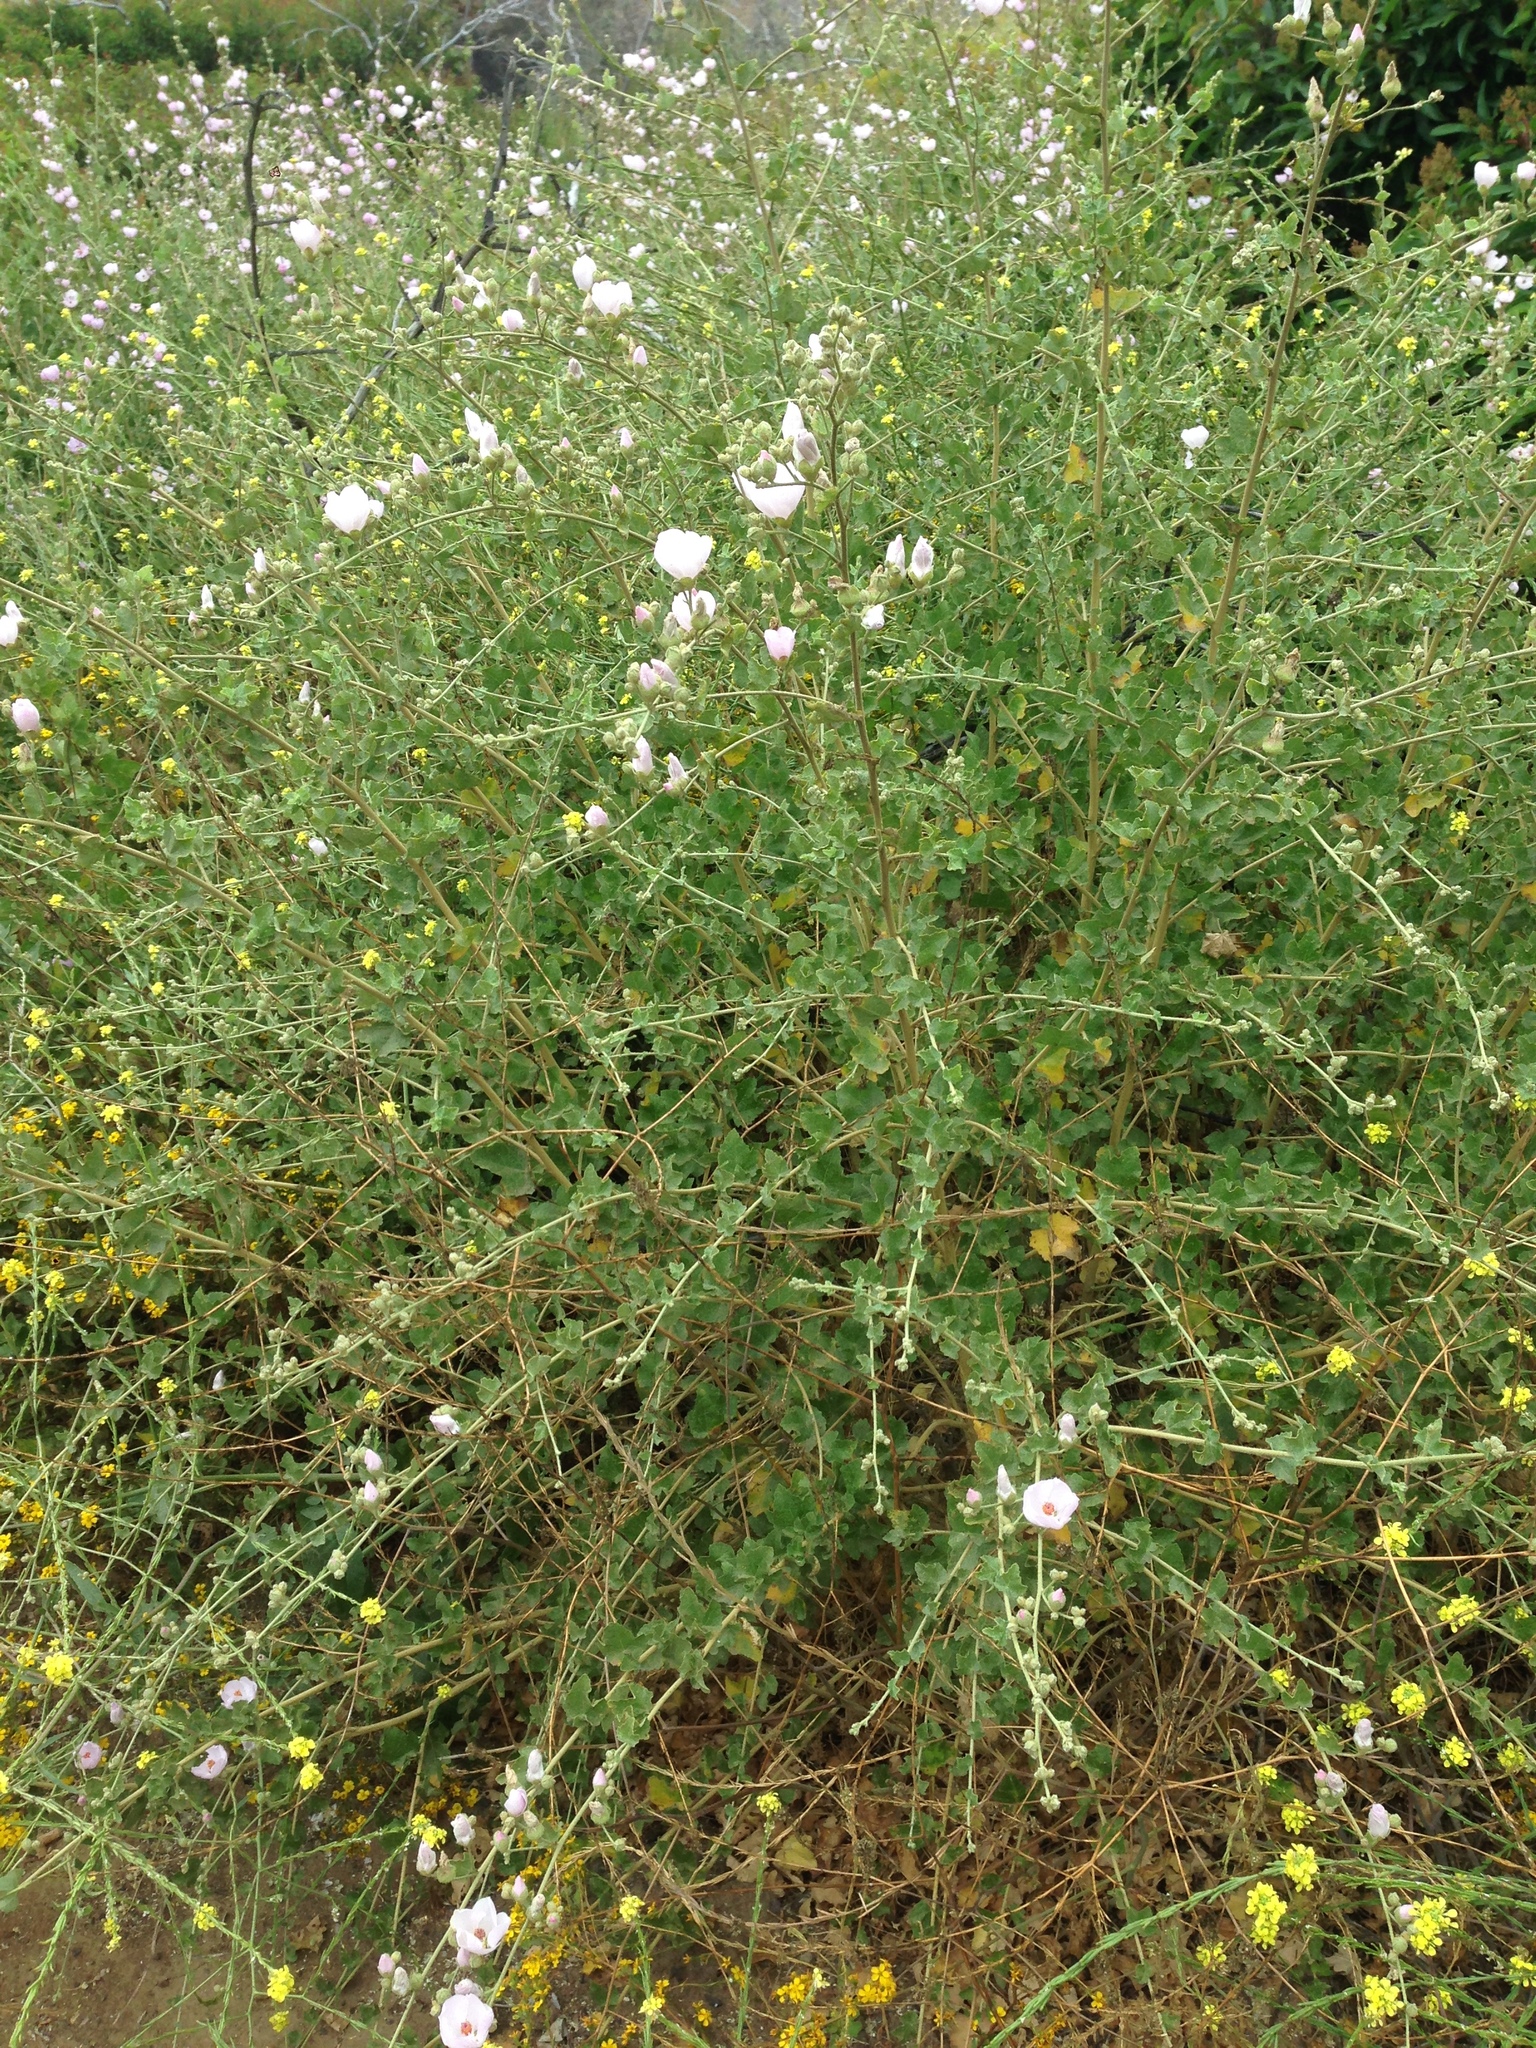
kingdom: Plantae
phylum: Tracheophyta
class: Magnoliopsida
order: Malvales
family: Malvaceae
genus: Malacothamnus
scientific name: Malacothamnus fasciculatus
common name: Sant cruz island bush-mallow
